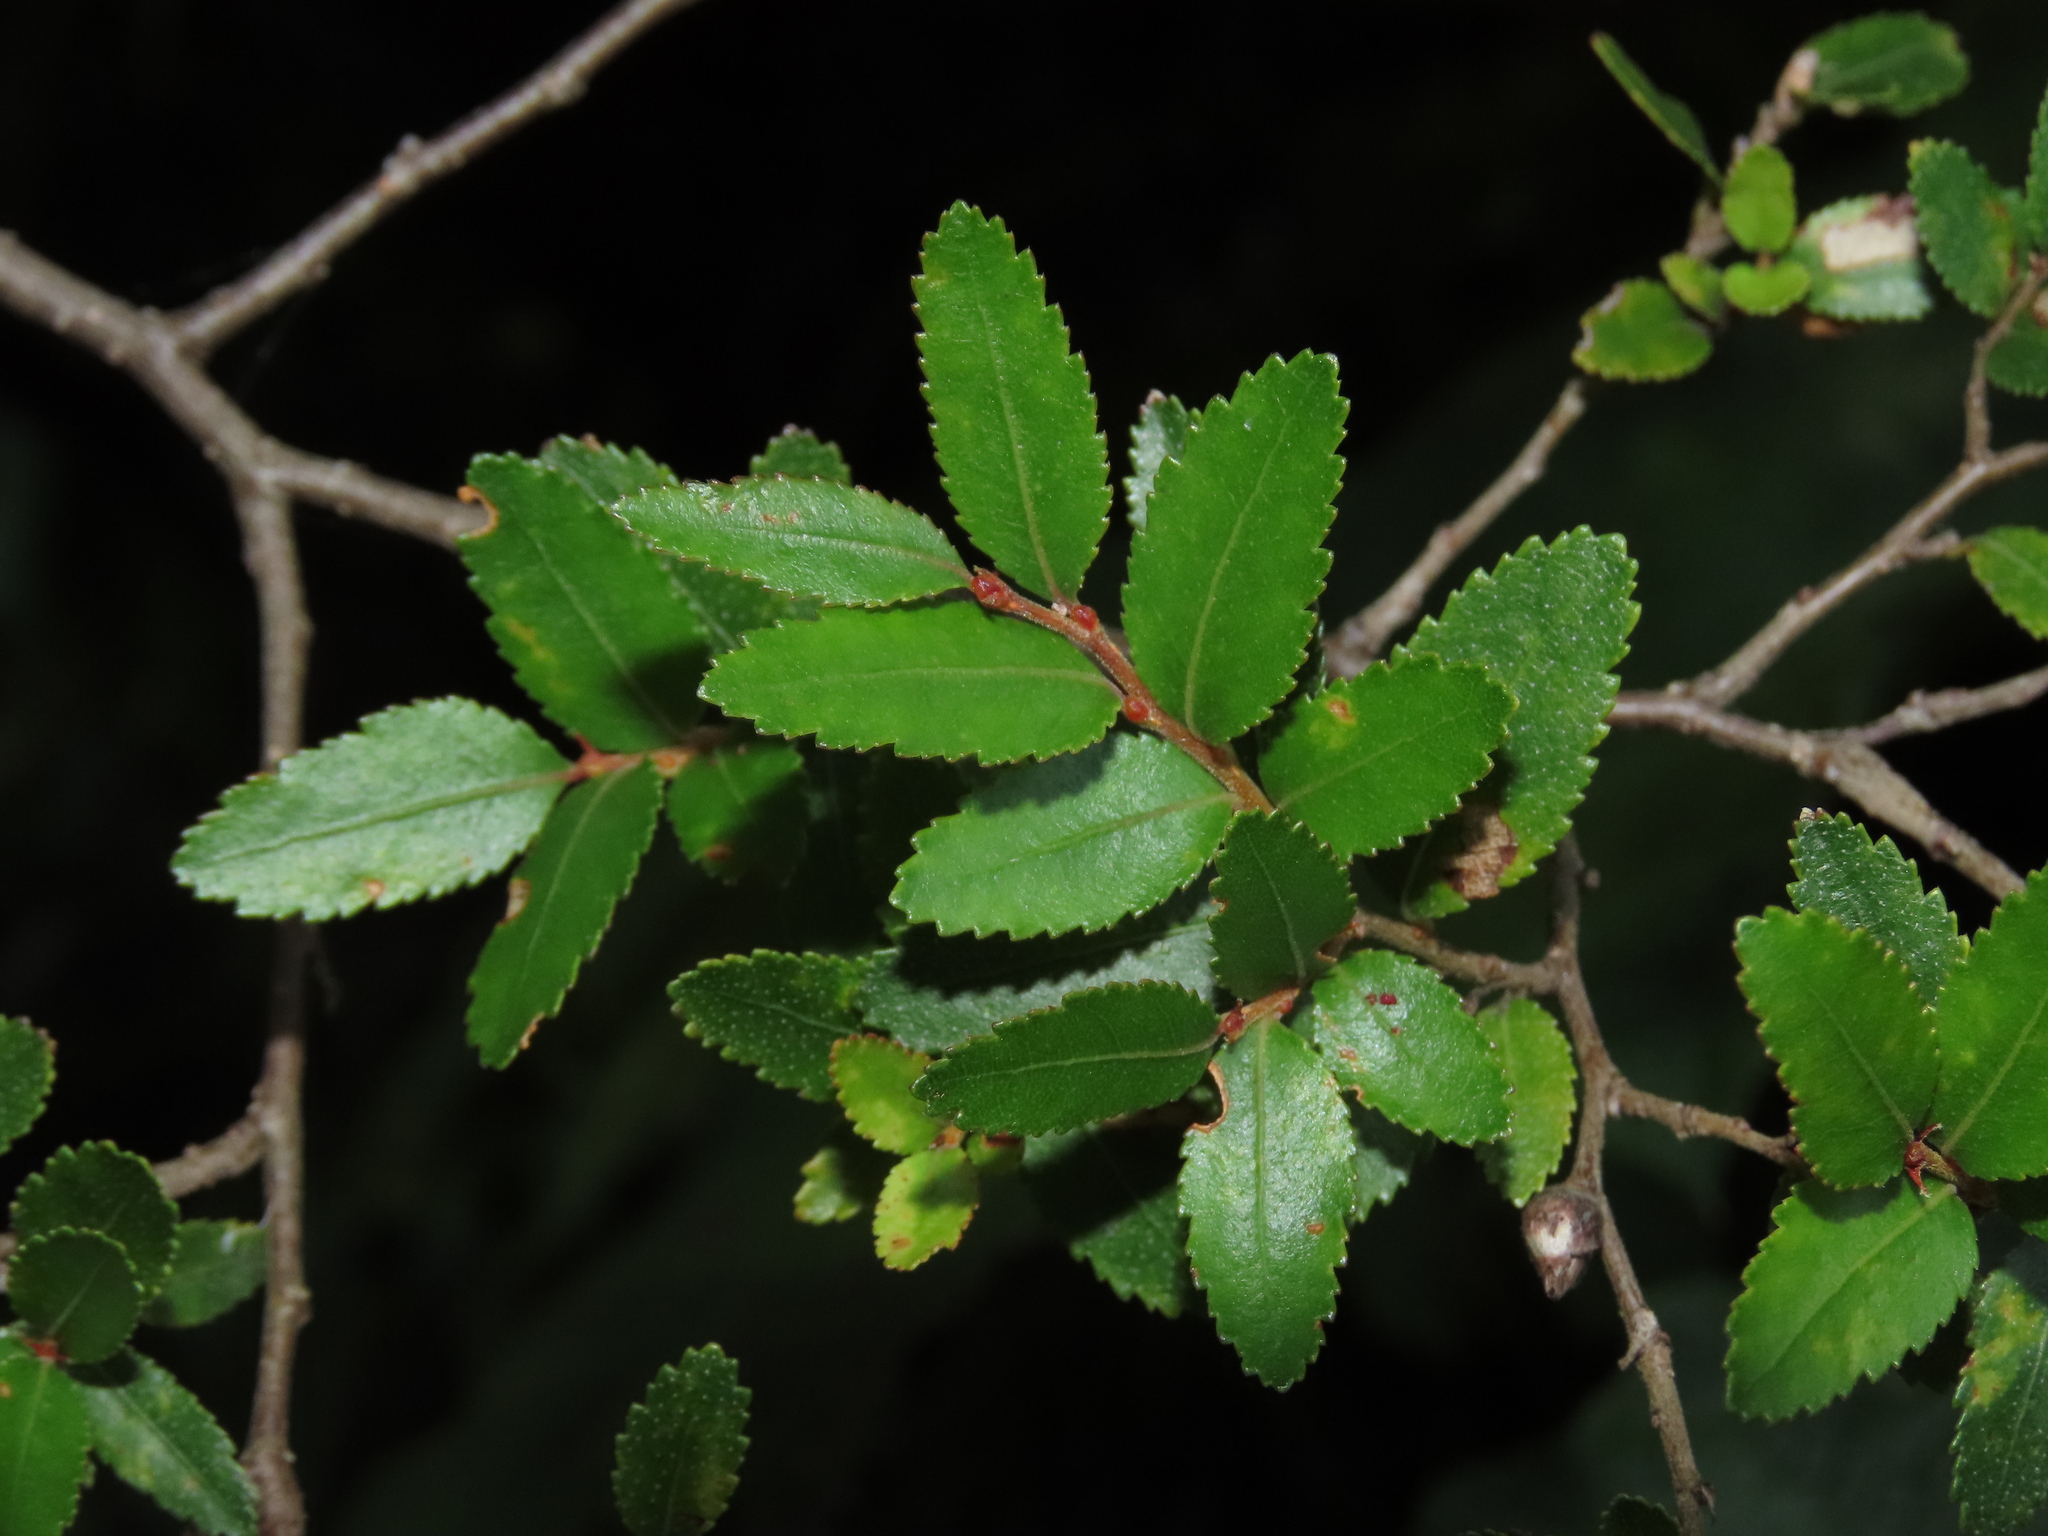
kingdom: Plantae
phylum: Tracheophyta
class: Magnoliopsida
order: Fagales
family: Nothofagaceae
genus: Nothofagus
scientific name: Nothofagus dombeyi
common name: Coigue
